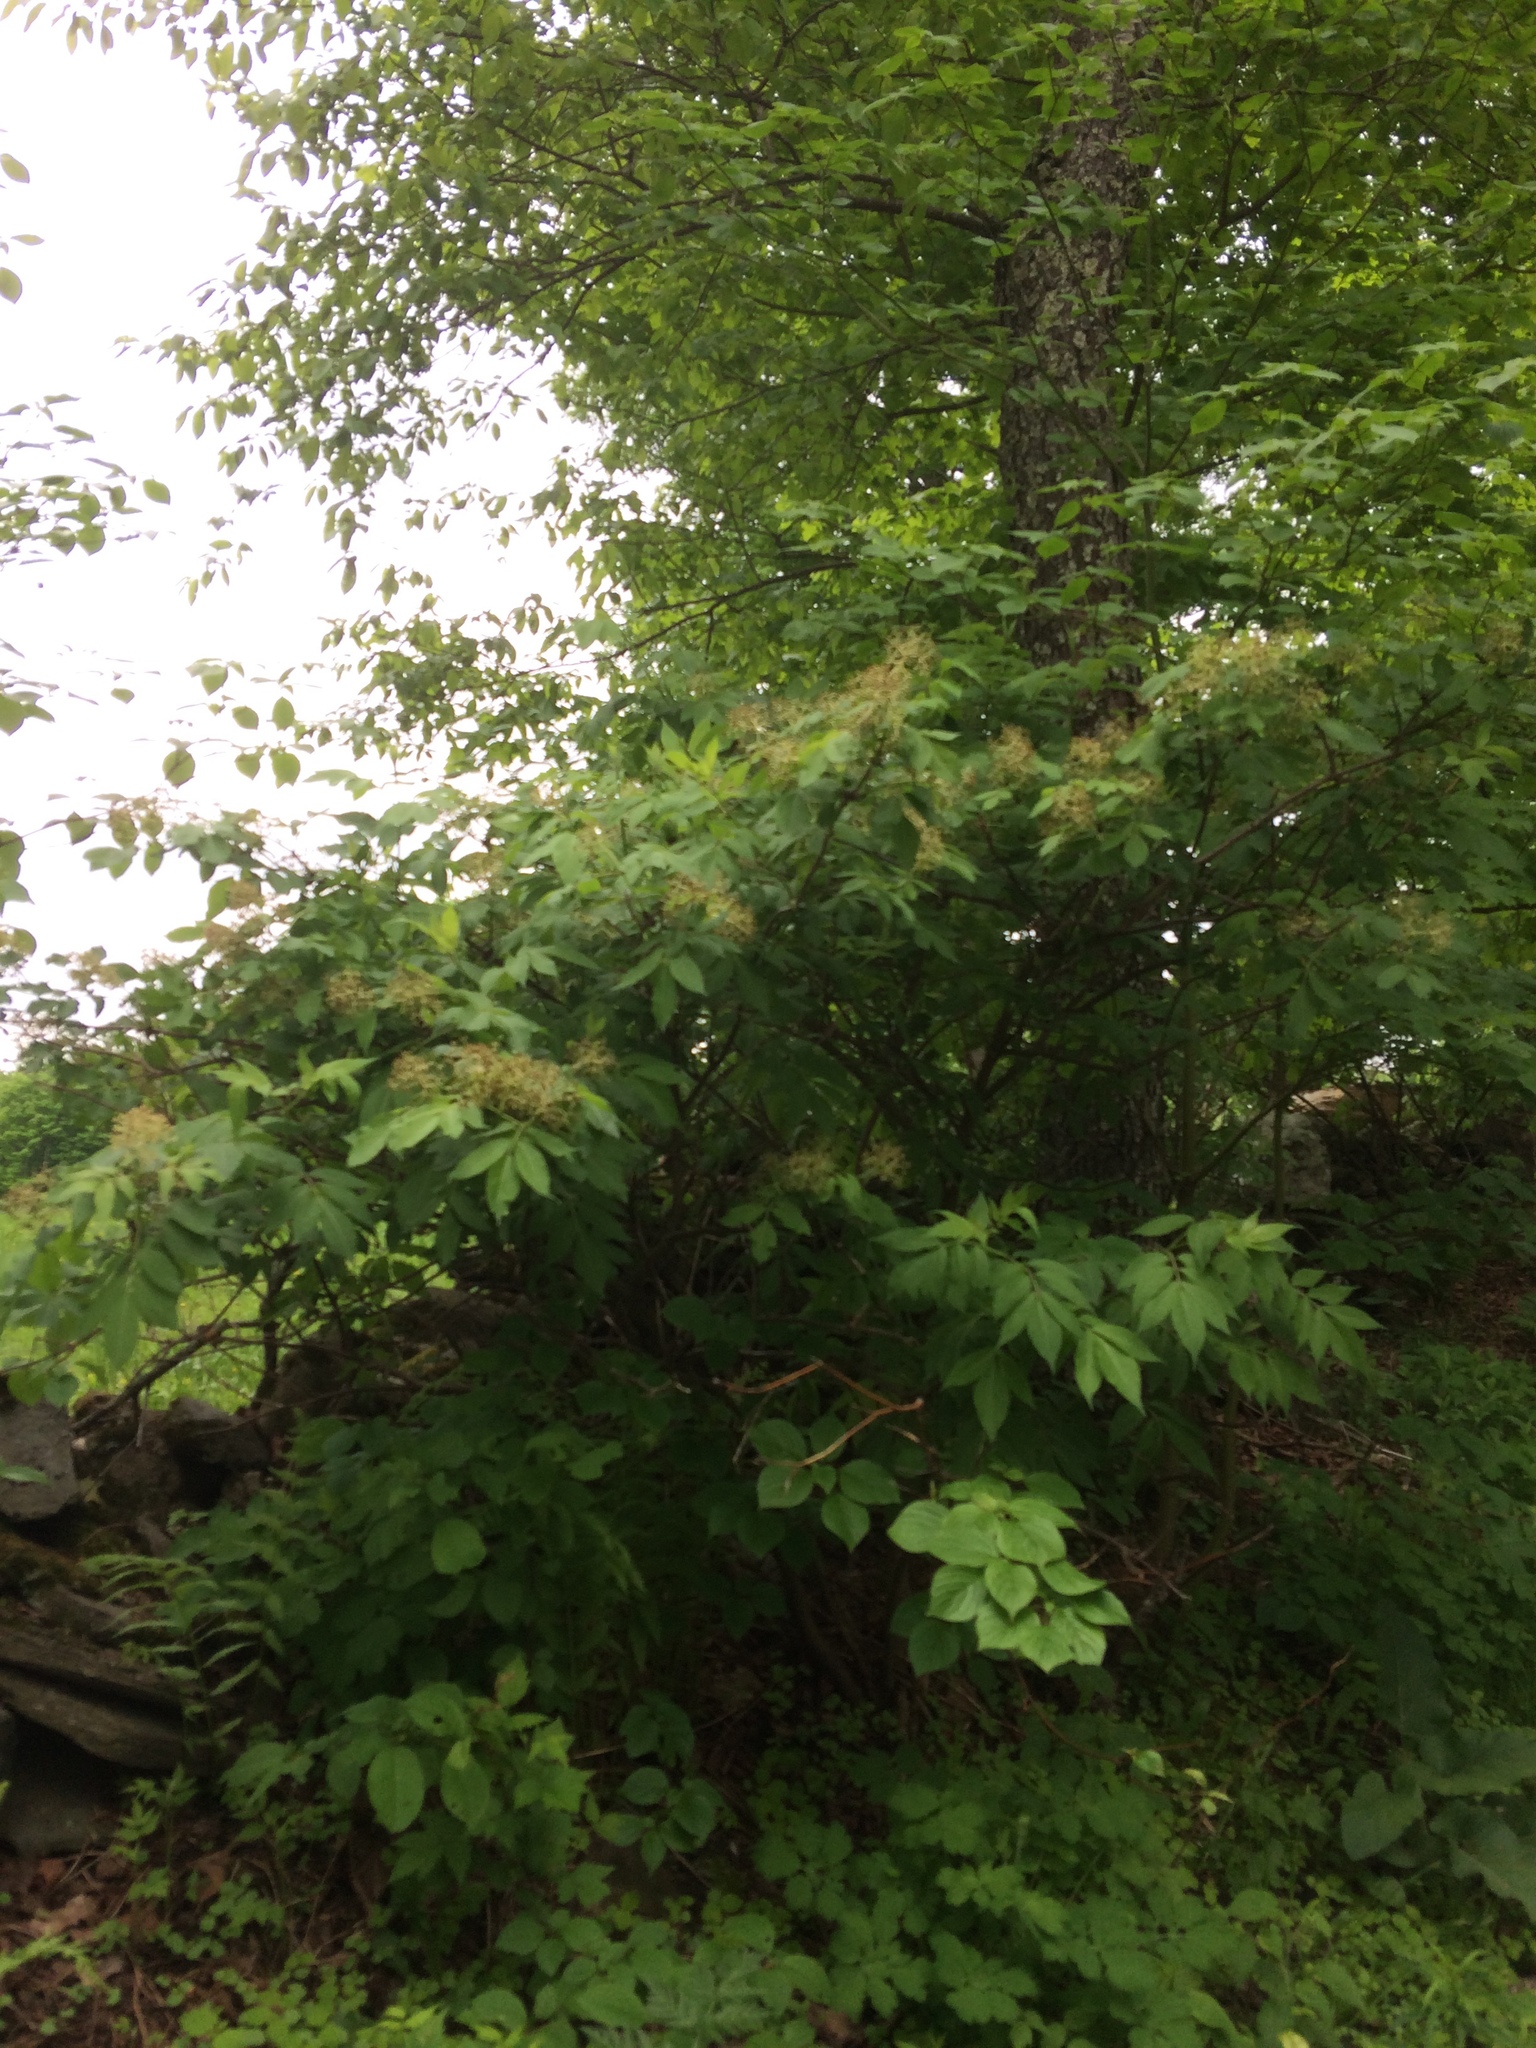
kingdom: Plantae
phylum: Tracheophyta
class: Magnoliopsida
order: Dipsacales
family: Viburnaceae
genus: Sambucus
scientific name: Sambucus racemosa
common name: Red-berried elder
